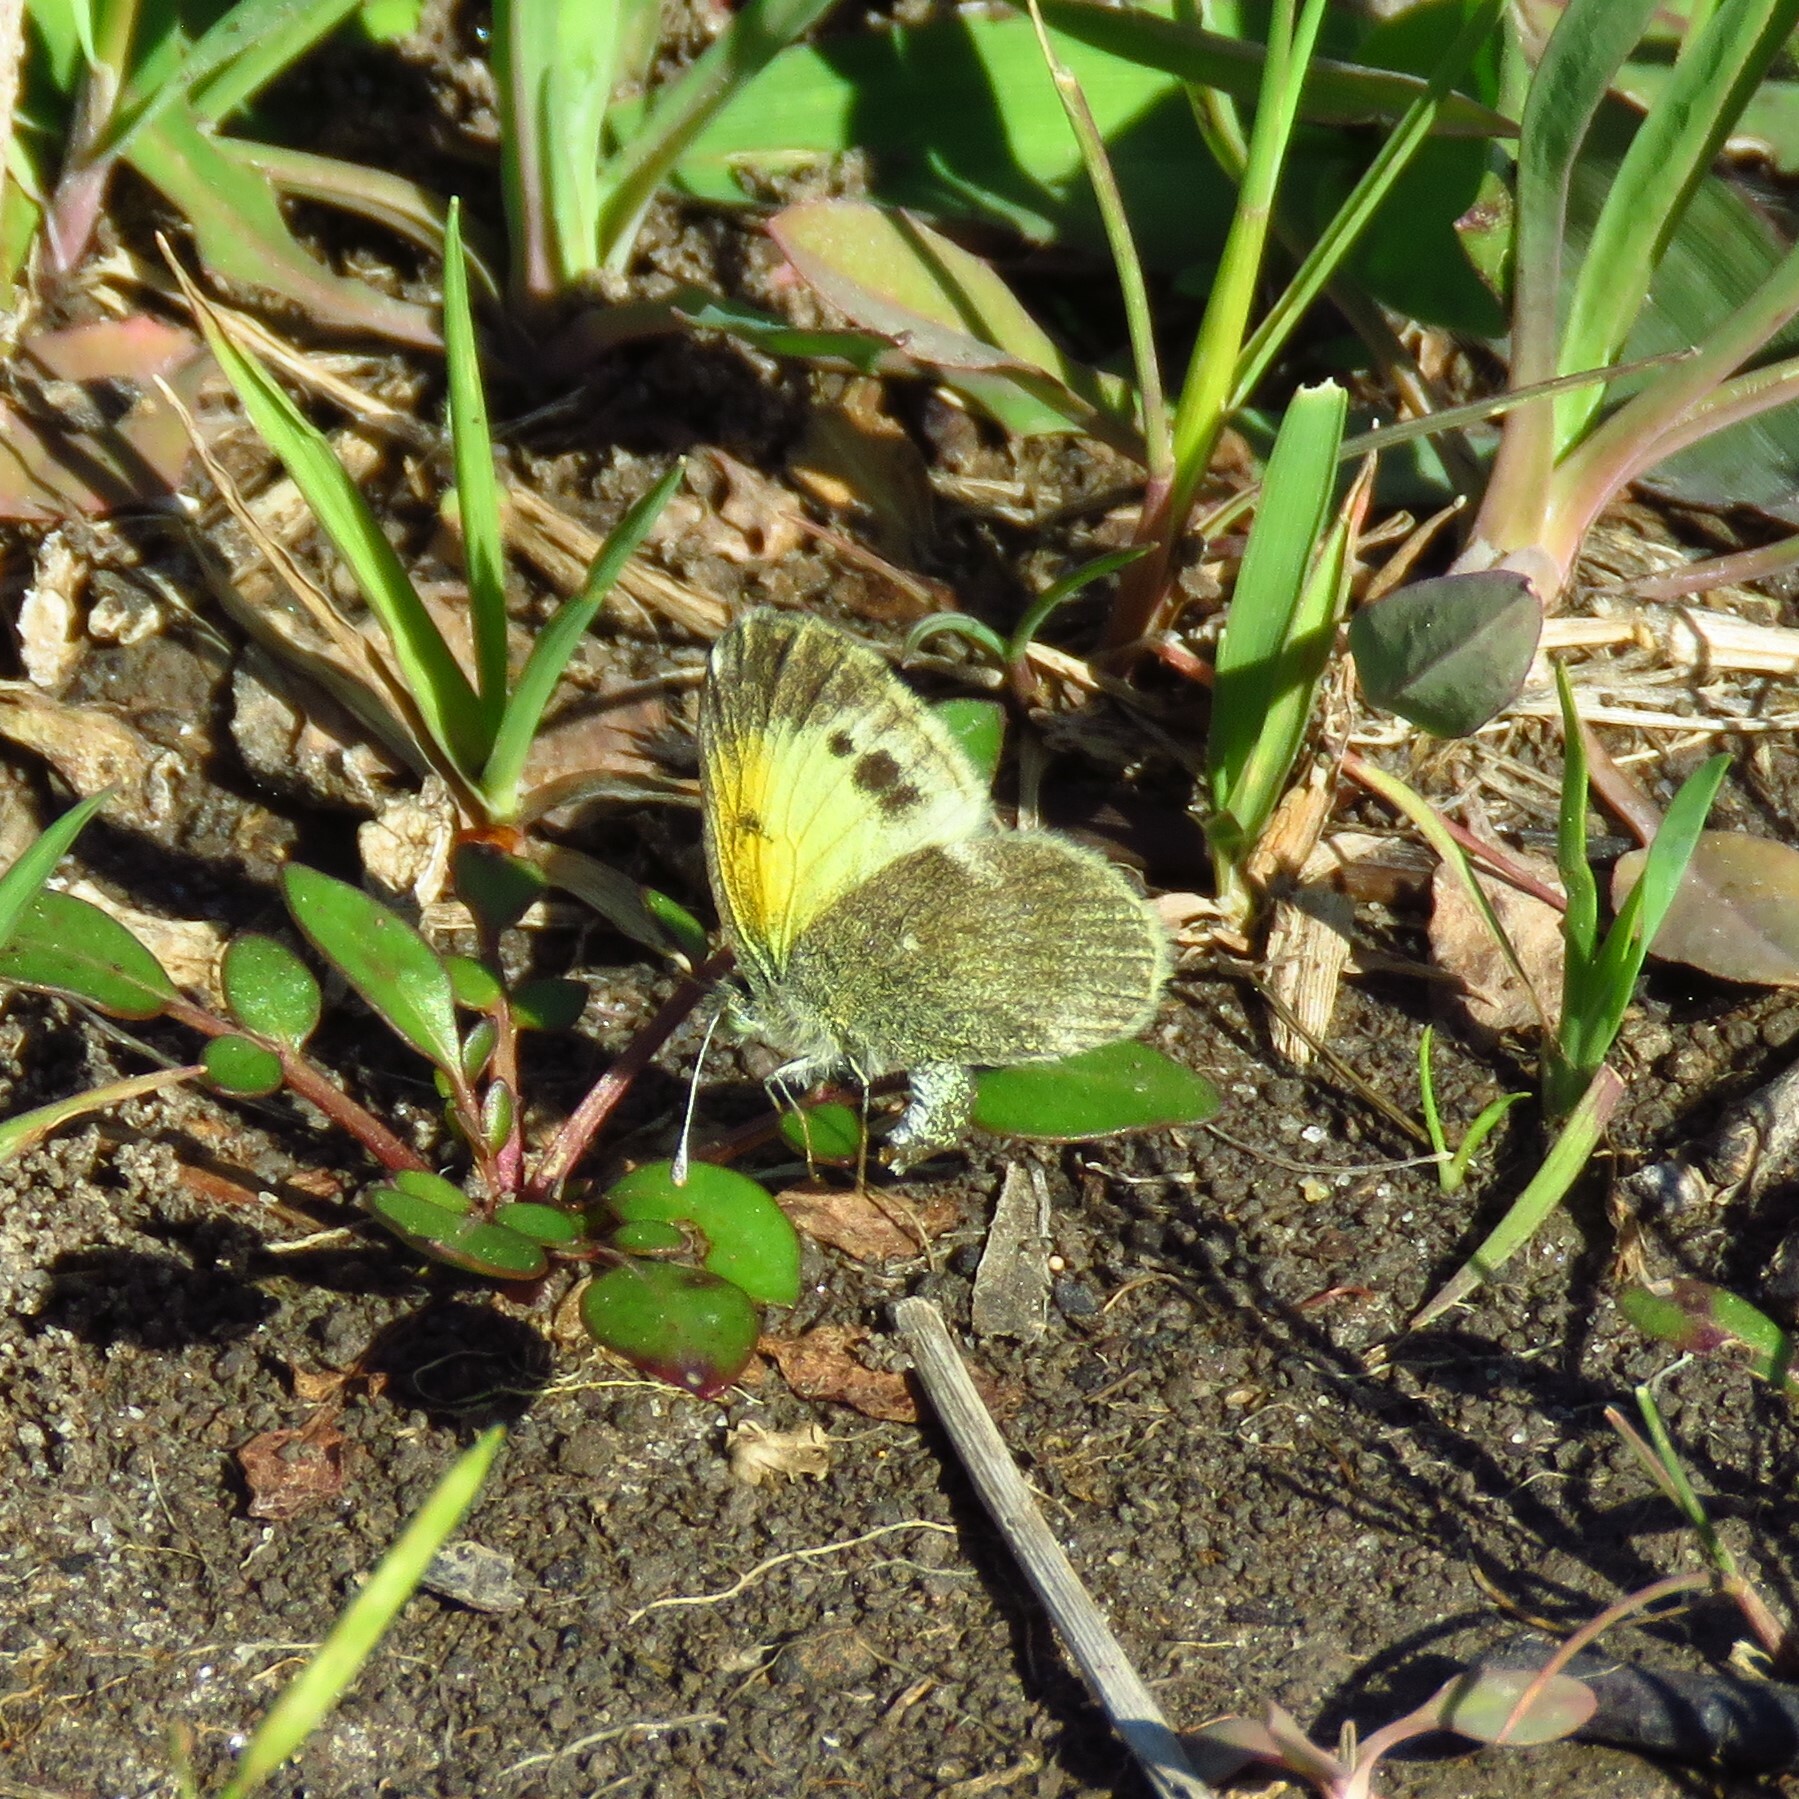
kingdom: Animalia
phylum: Arthropoda
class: Insecta
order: Lepidoptera
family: Pieridae
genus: Nathalis
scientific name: Nathalis iole
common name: Dainty sulphur
